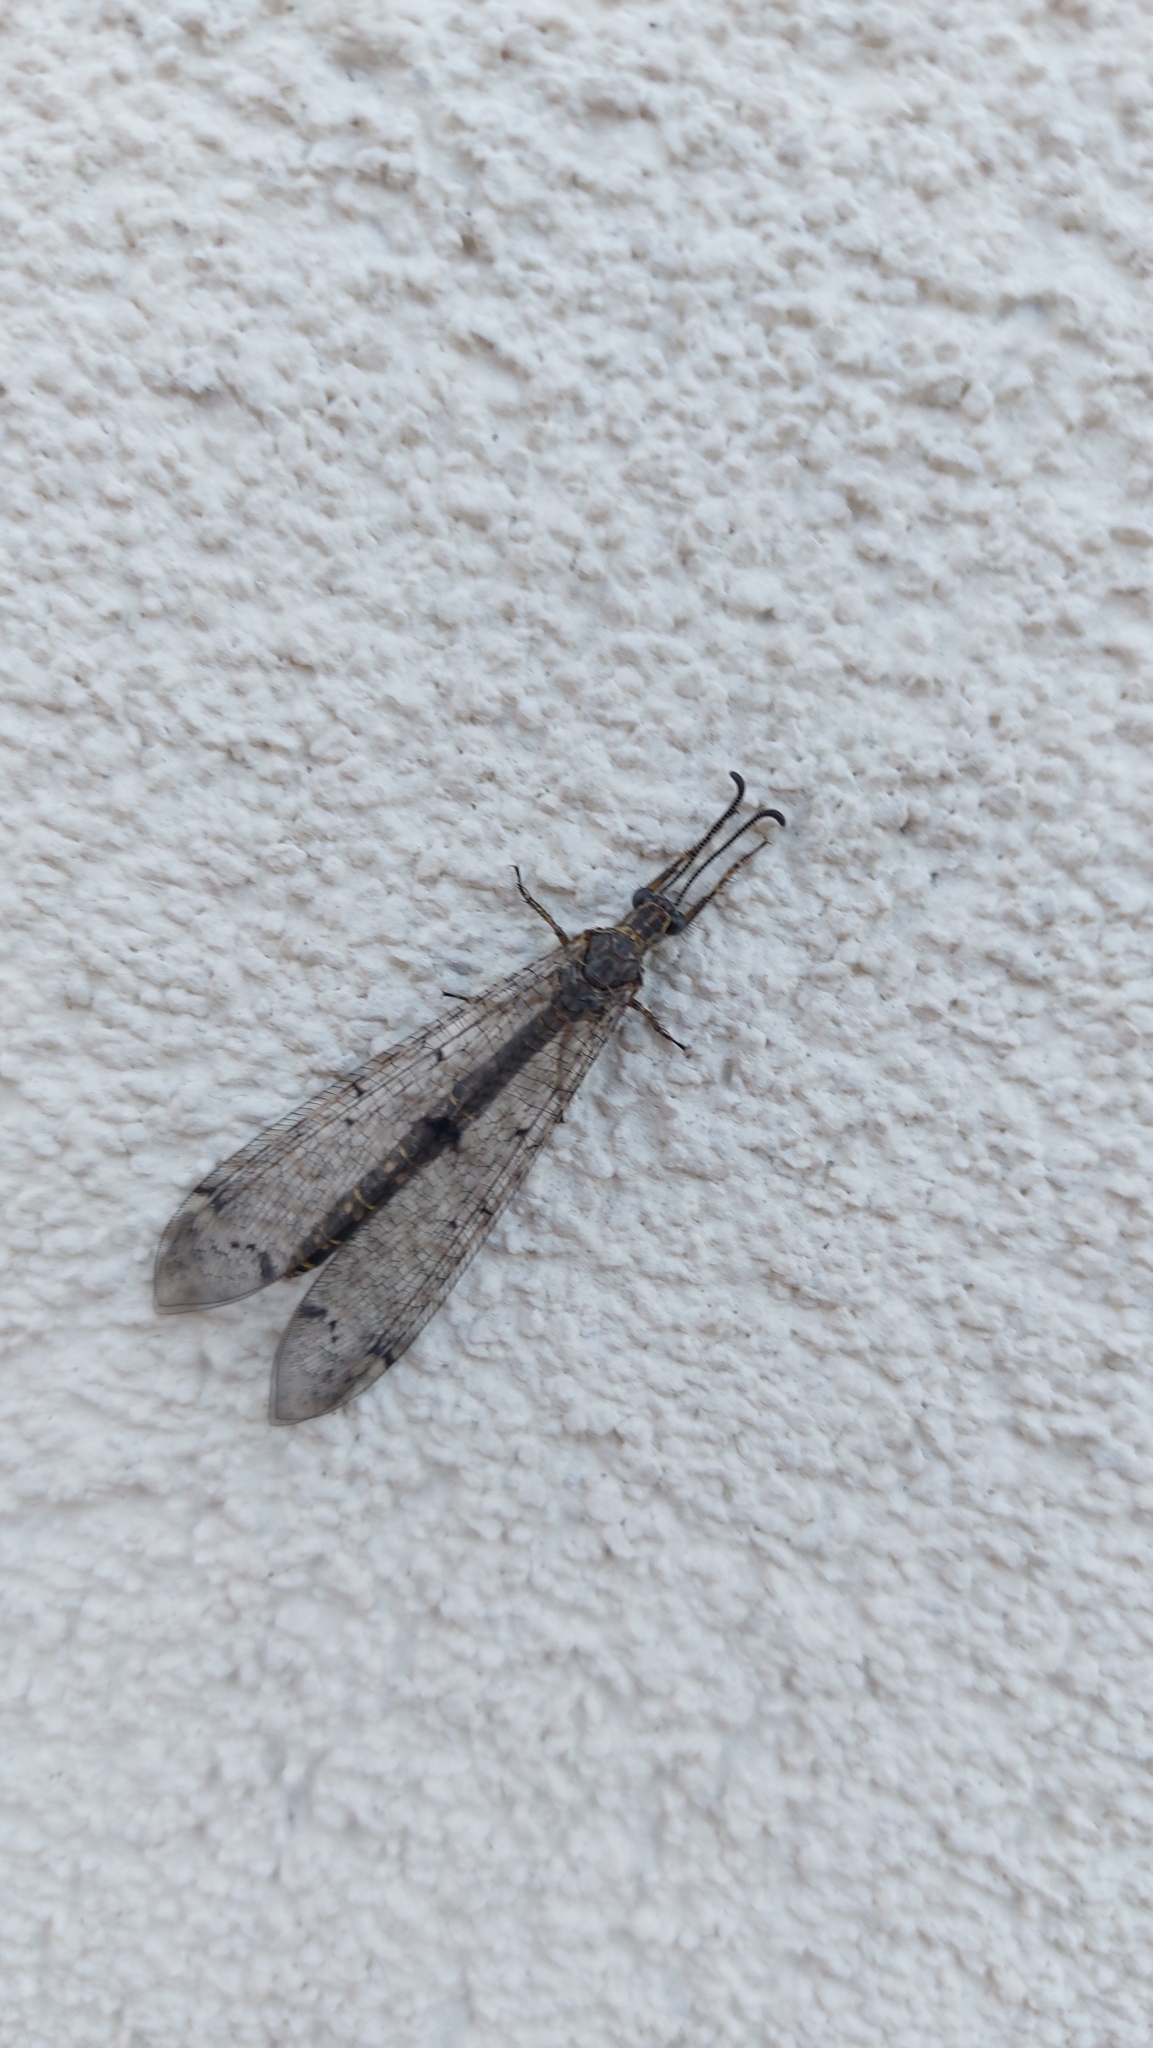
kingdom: Animalia
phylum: Arthropoda
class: Insecta
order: Neuroptera
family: Myrmeleontidae
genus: Distoleon
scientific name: Distoleon tetragrammicus
